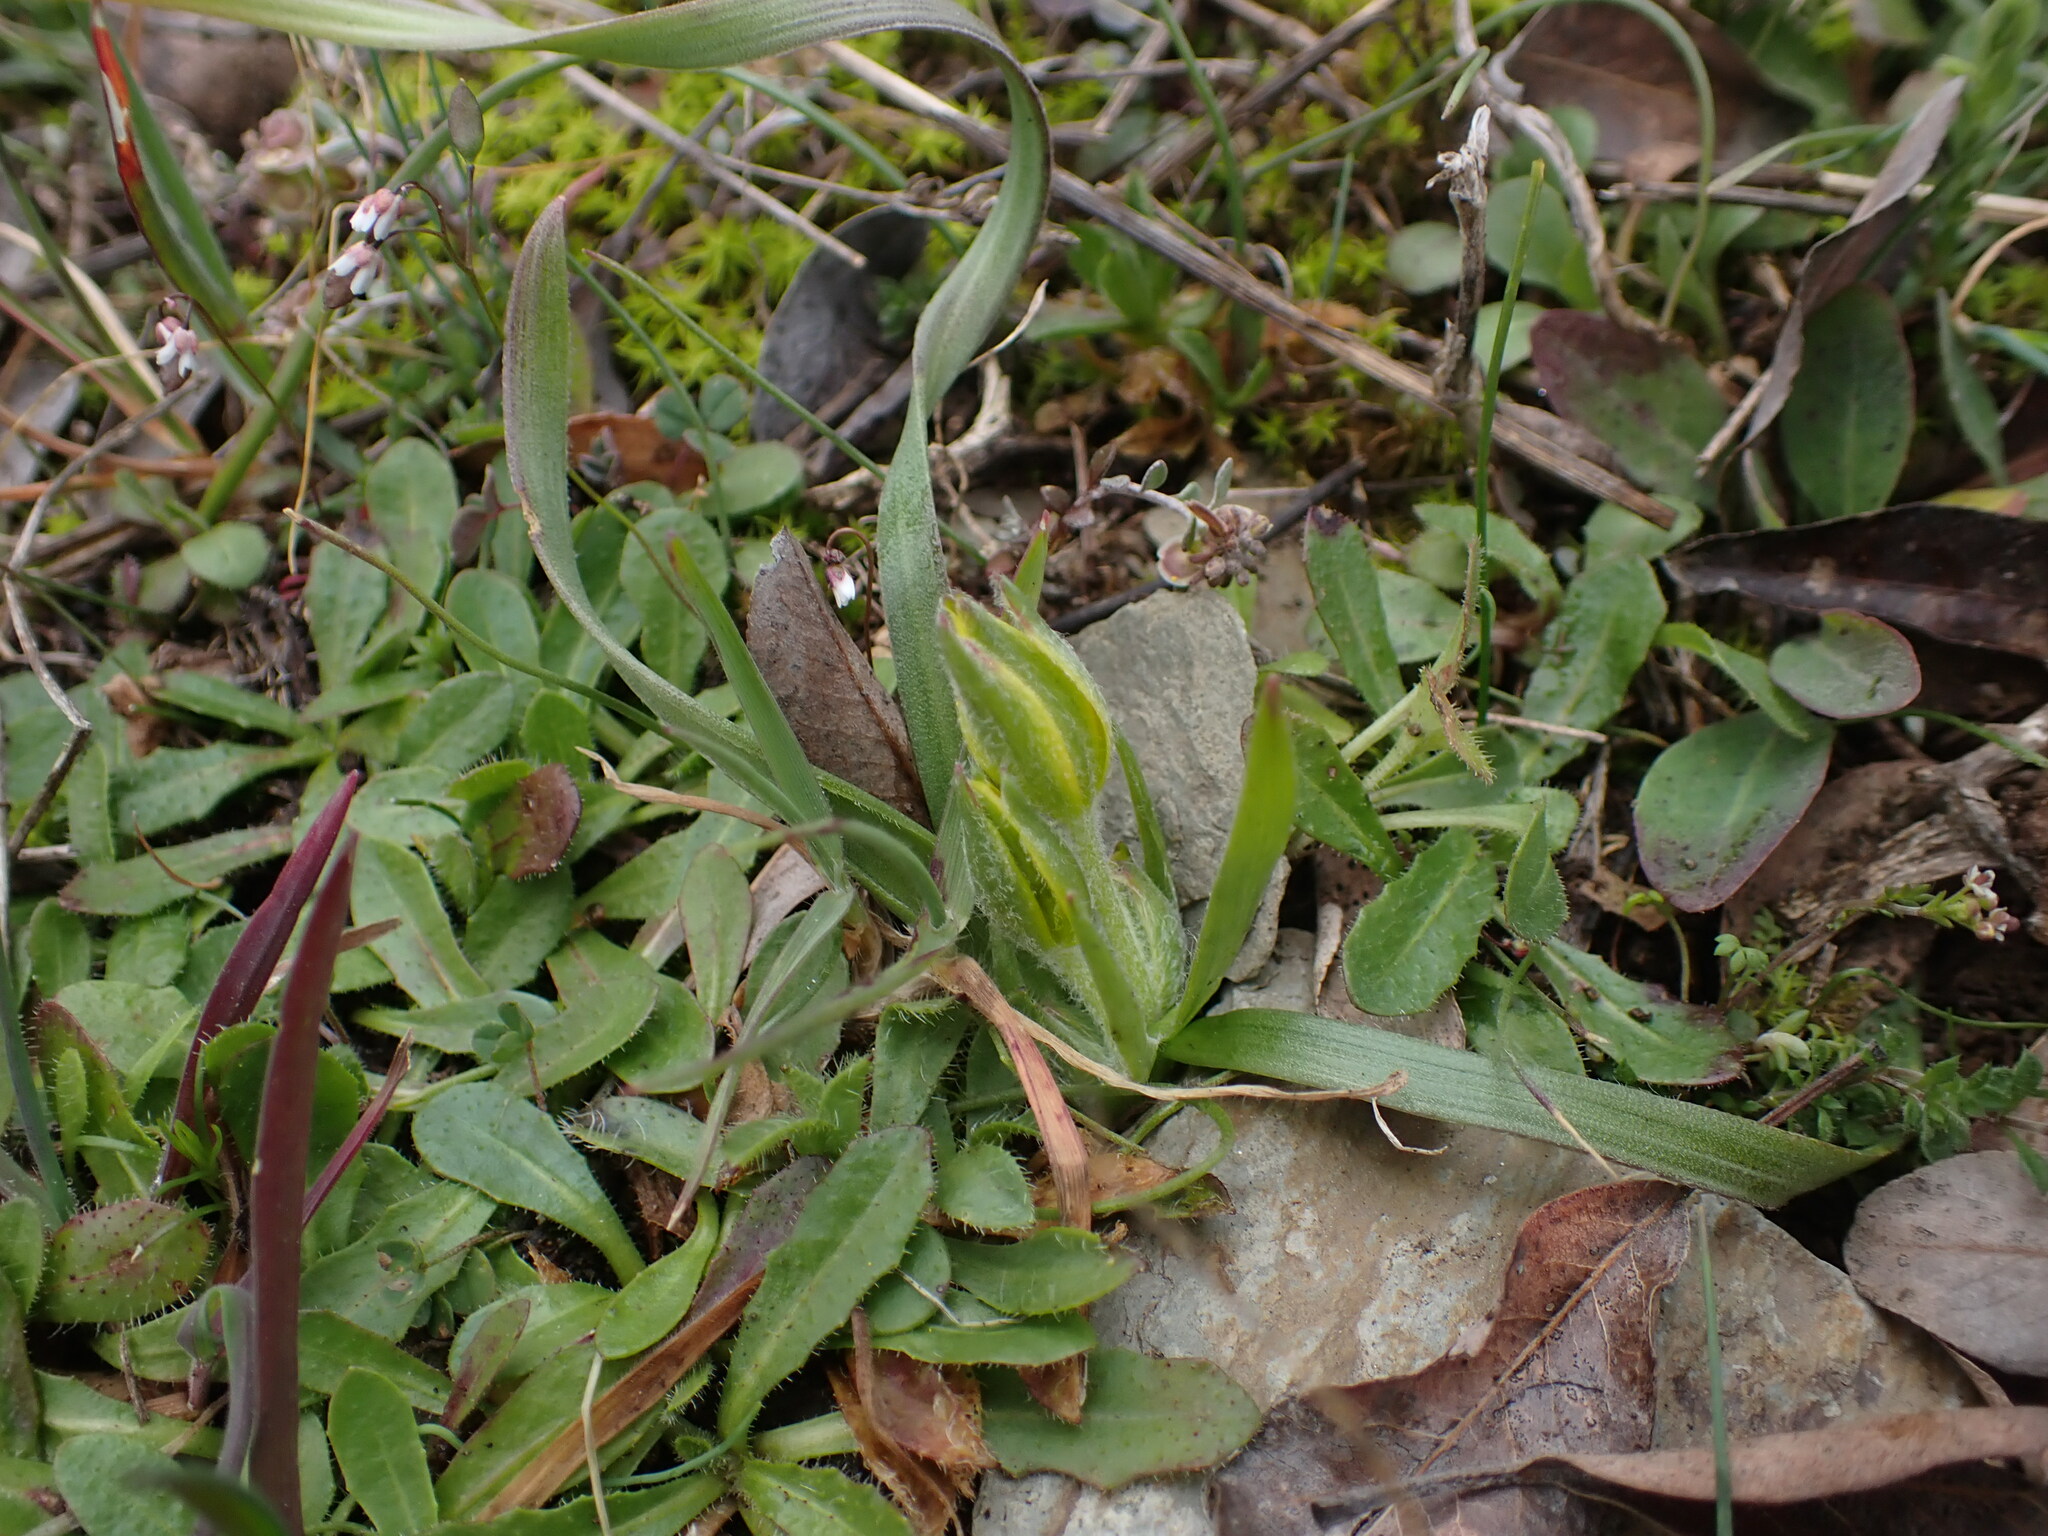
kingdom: Plantae
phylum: Tracheophyta
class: Liliopsida
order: Liliales
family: Liliaceae
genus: Gagea
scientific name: Gagea bohemica
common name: Early star-of-bethlehem
